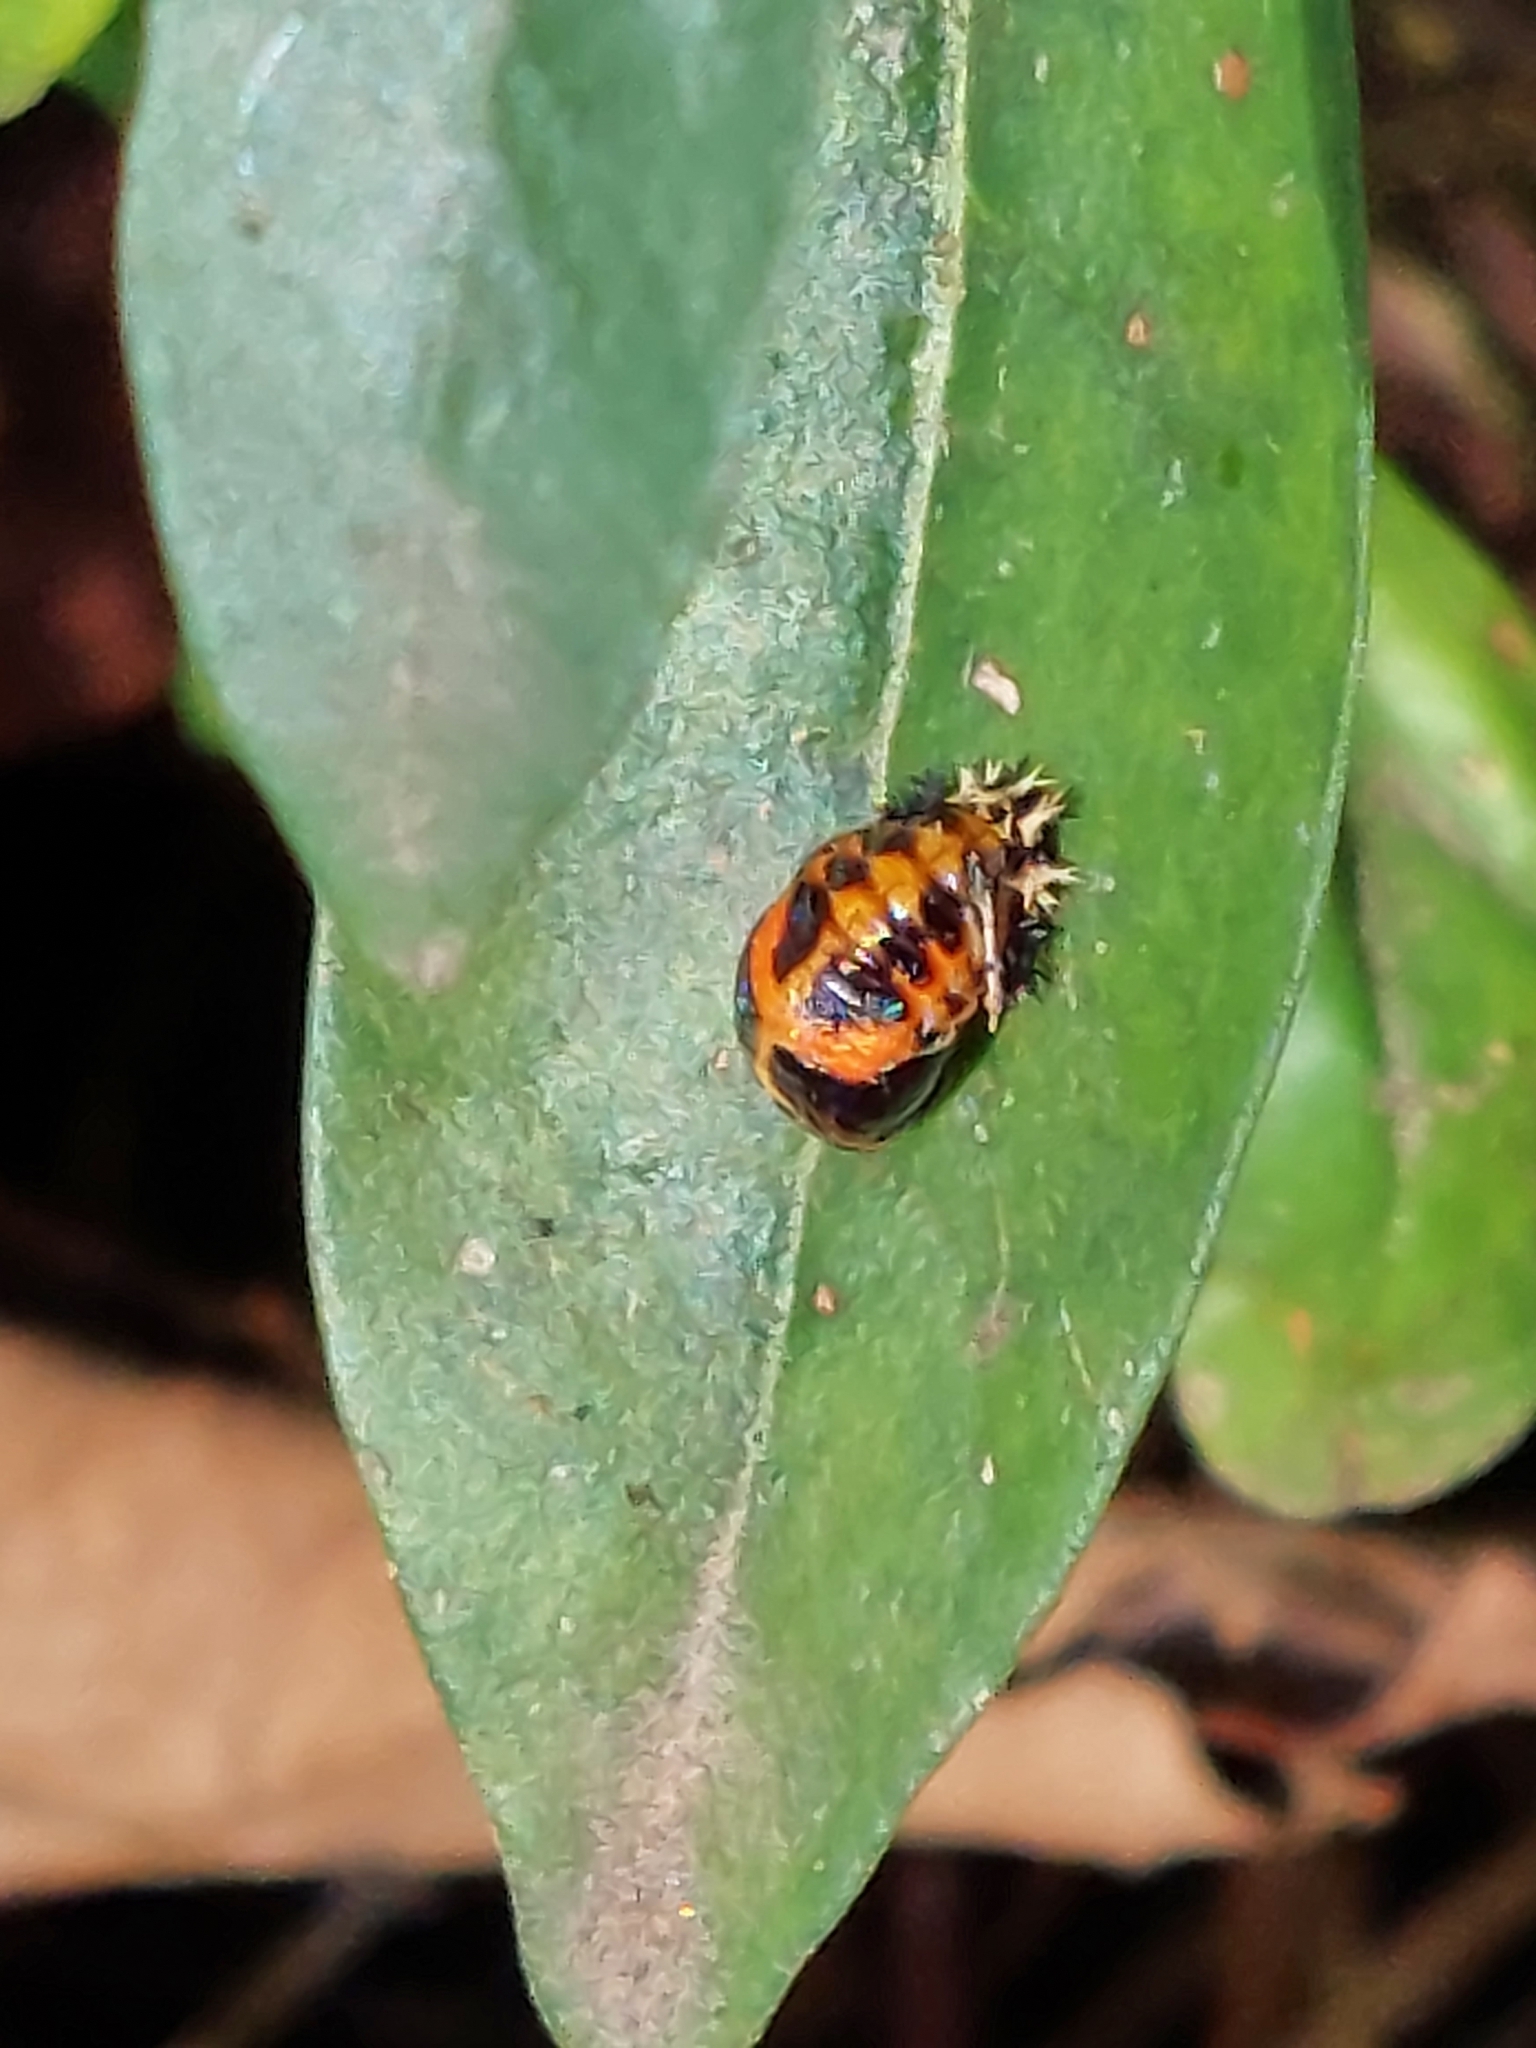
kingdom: Animalia
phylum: Arthropoda
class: Insecta
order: Coleoptera
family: Coccinellidae
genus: Harmonia
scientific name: Harmonia axyridis
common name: Harlequin ladybird
